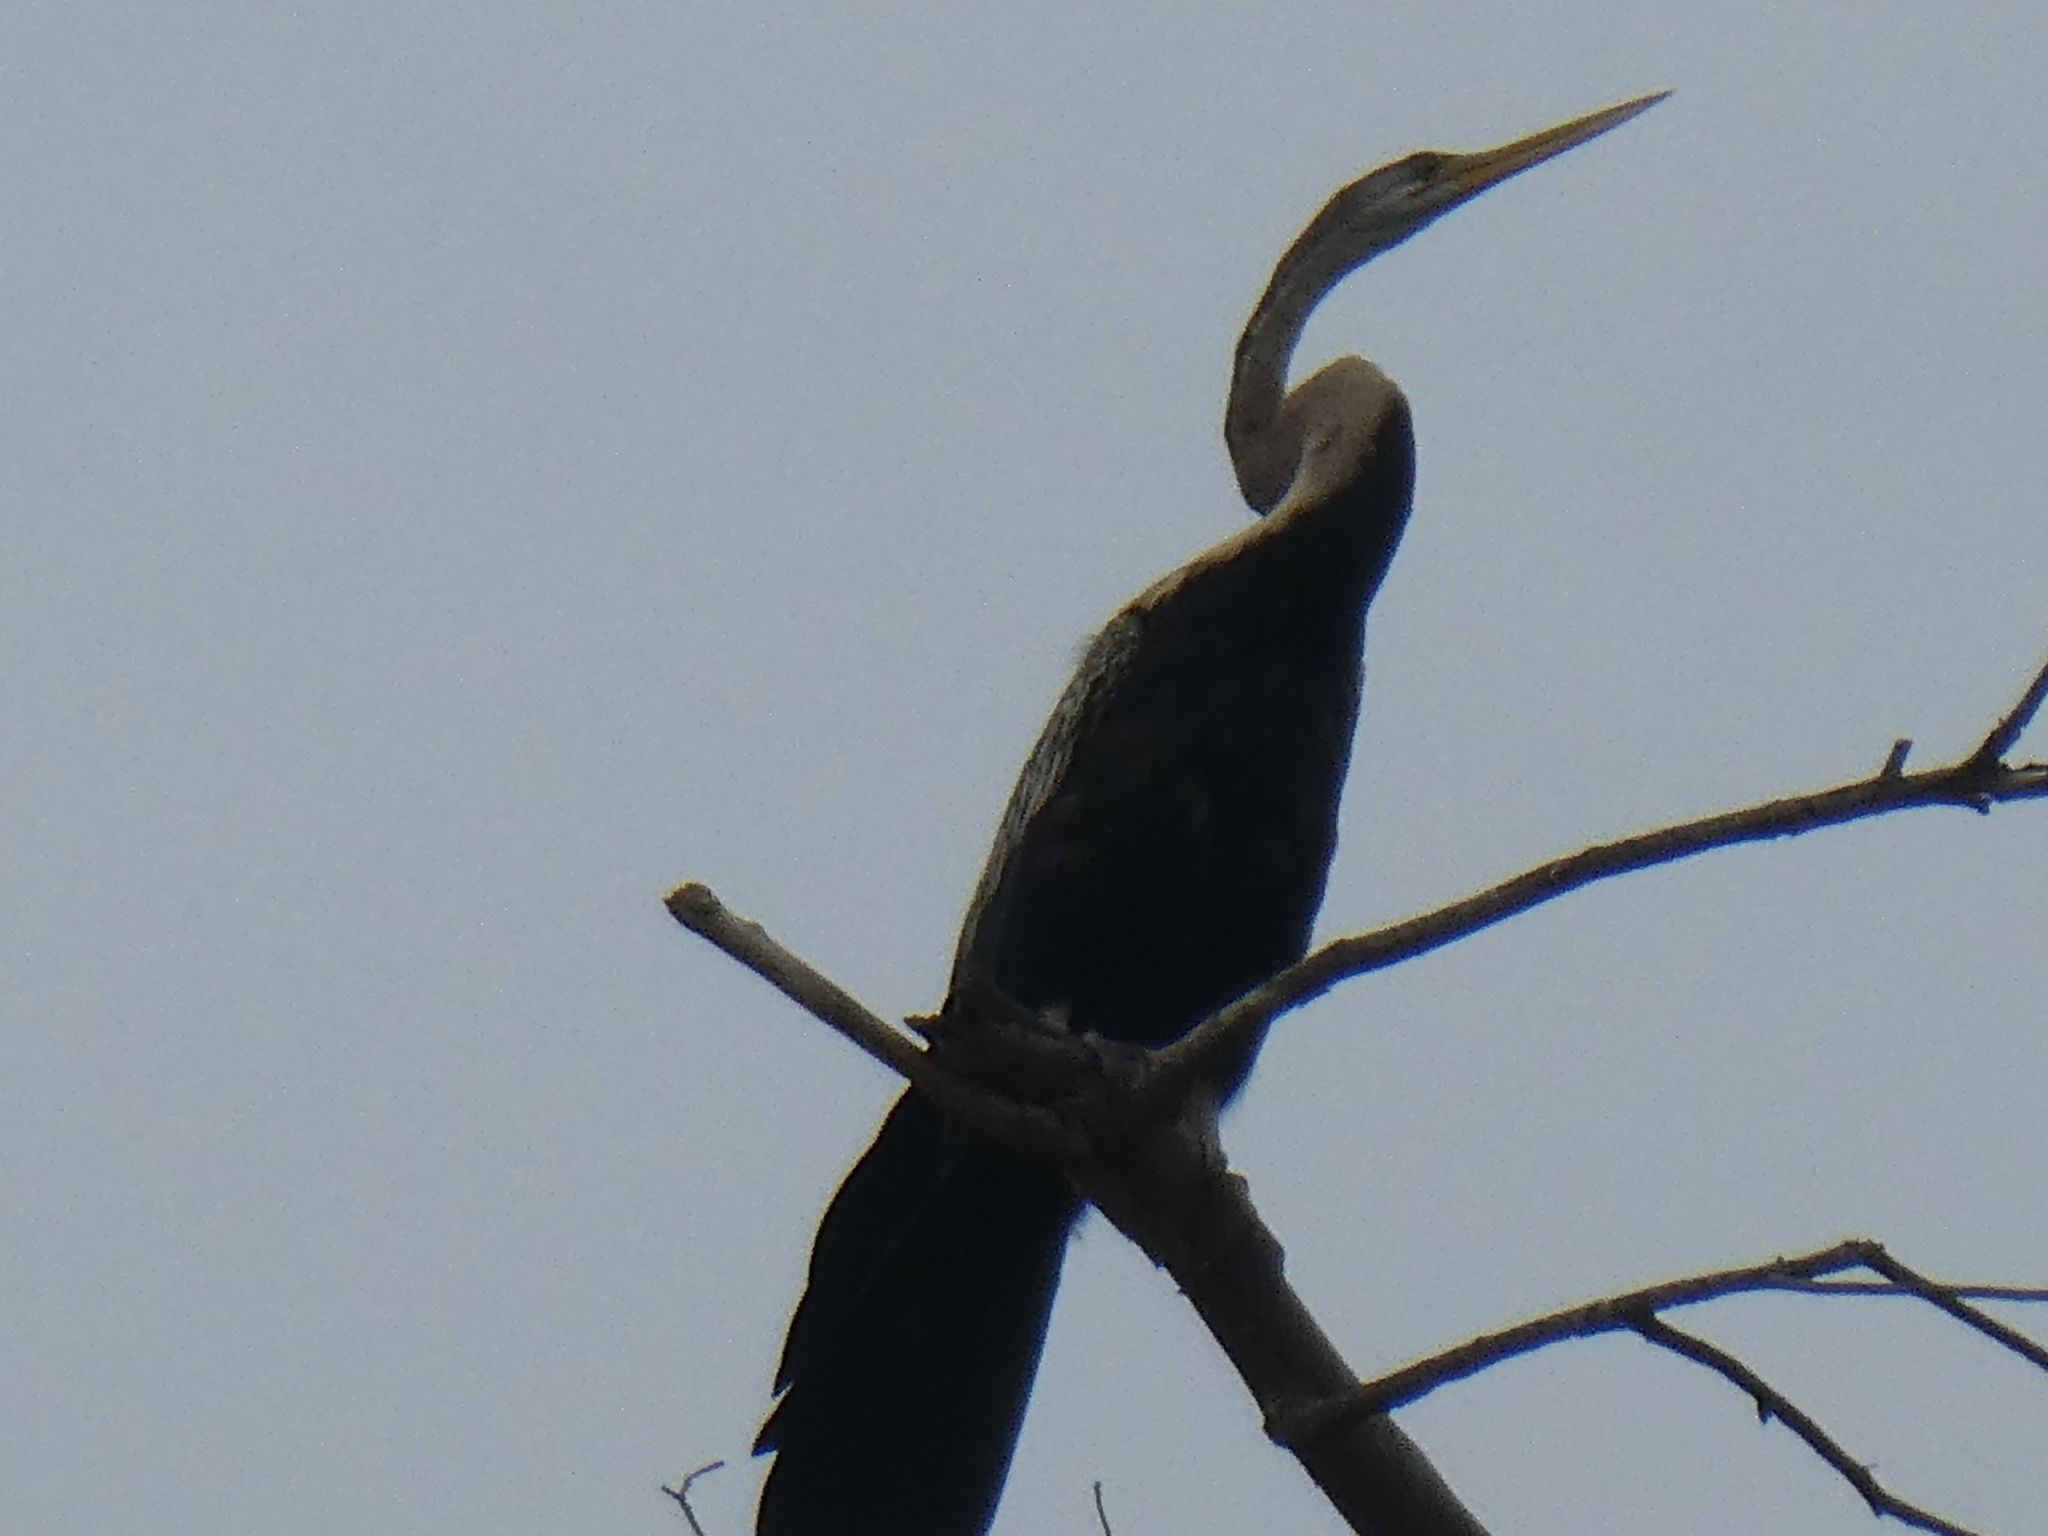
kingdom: Animalia
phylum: Chordata
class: Aves
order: Suliformes
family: Anhingidae
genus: Anhinga
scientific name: Anhinga melanogaster
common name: Oriental darter
